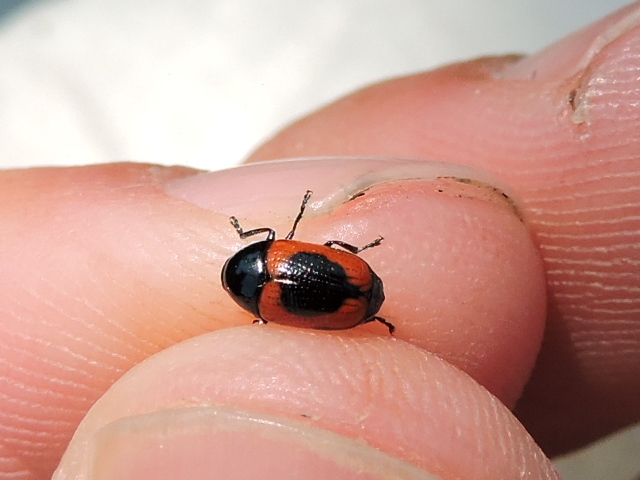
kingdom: Animalia
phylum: Arthropoda
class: Insecta
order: Coleoptera
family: Chrysomelidae
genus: Cryptocephalus
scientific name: Cryptocephalus notatus
